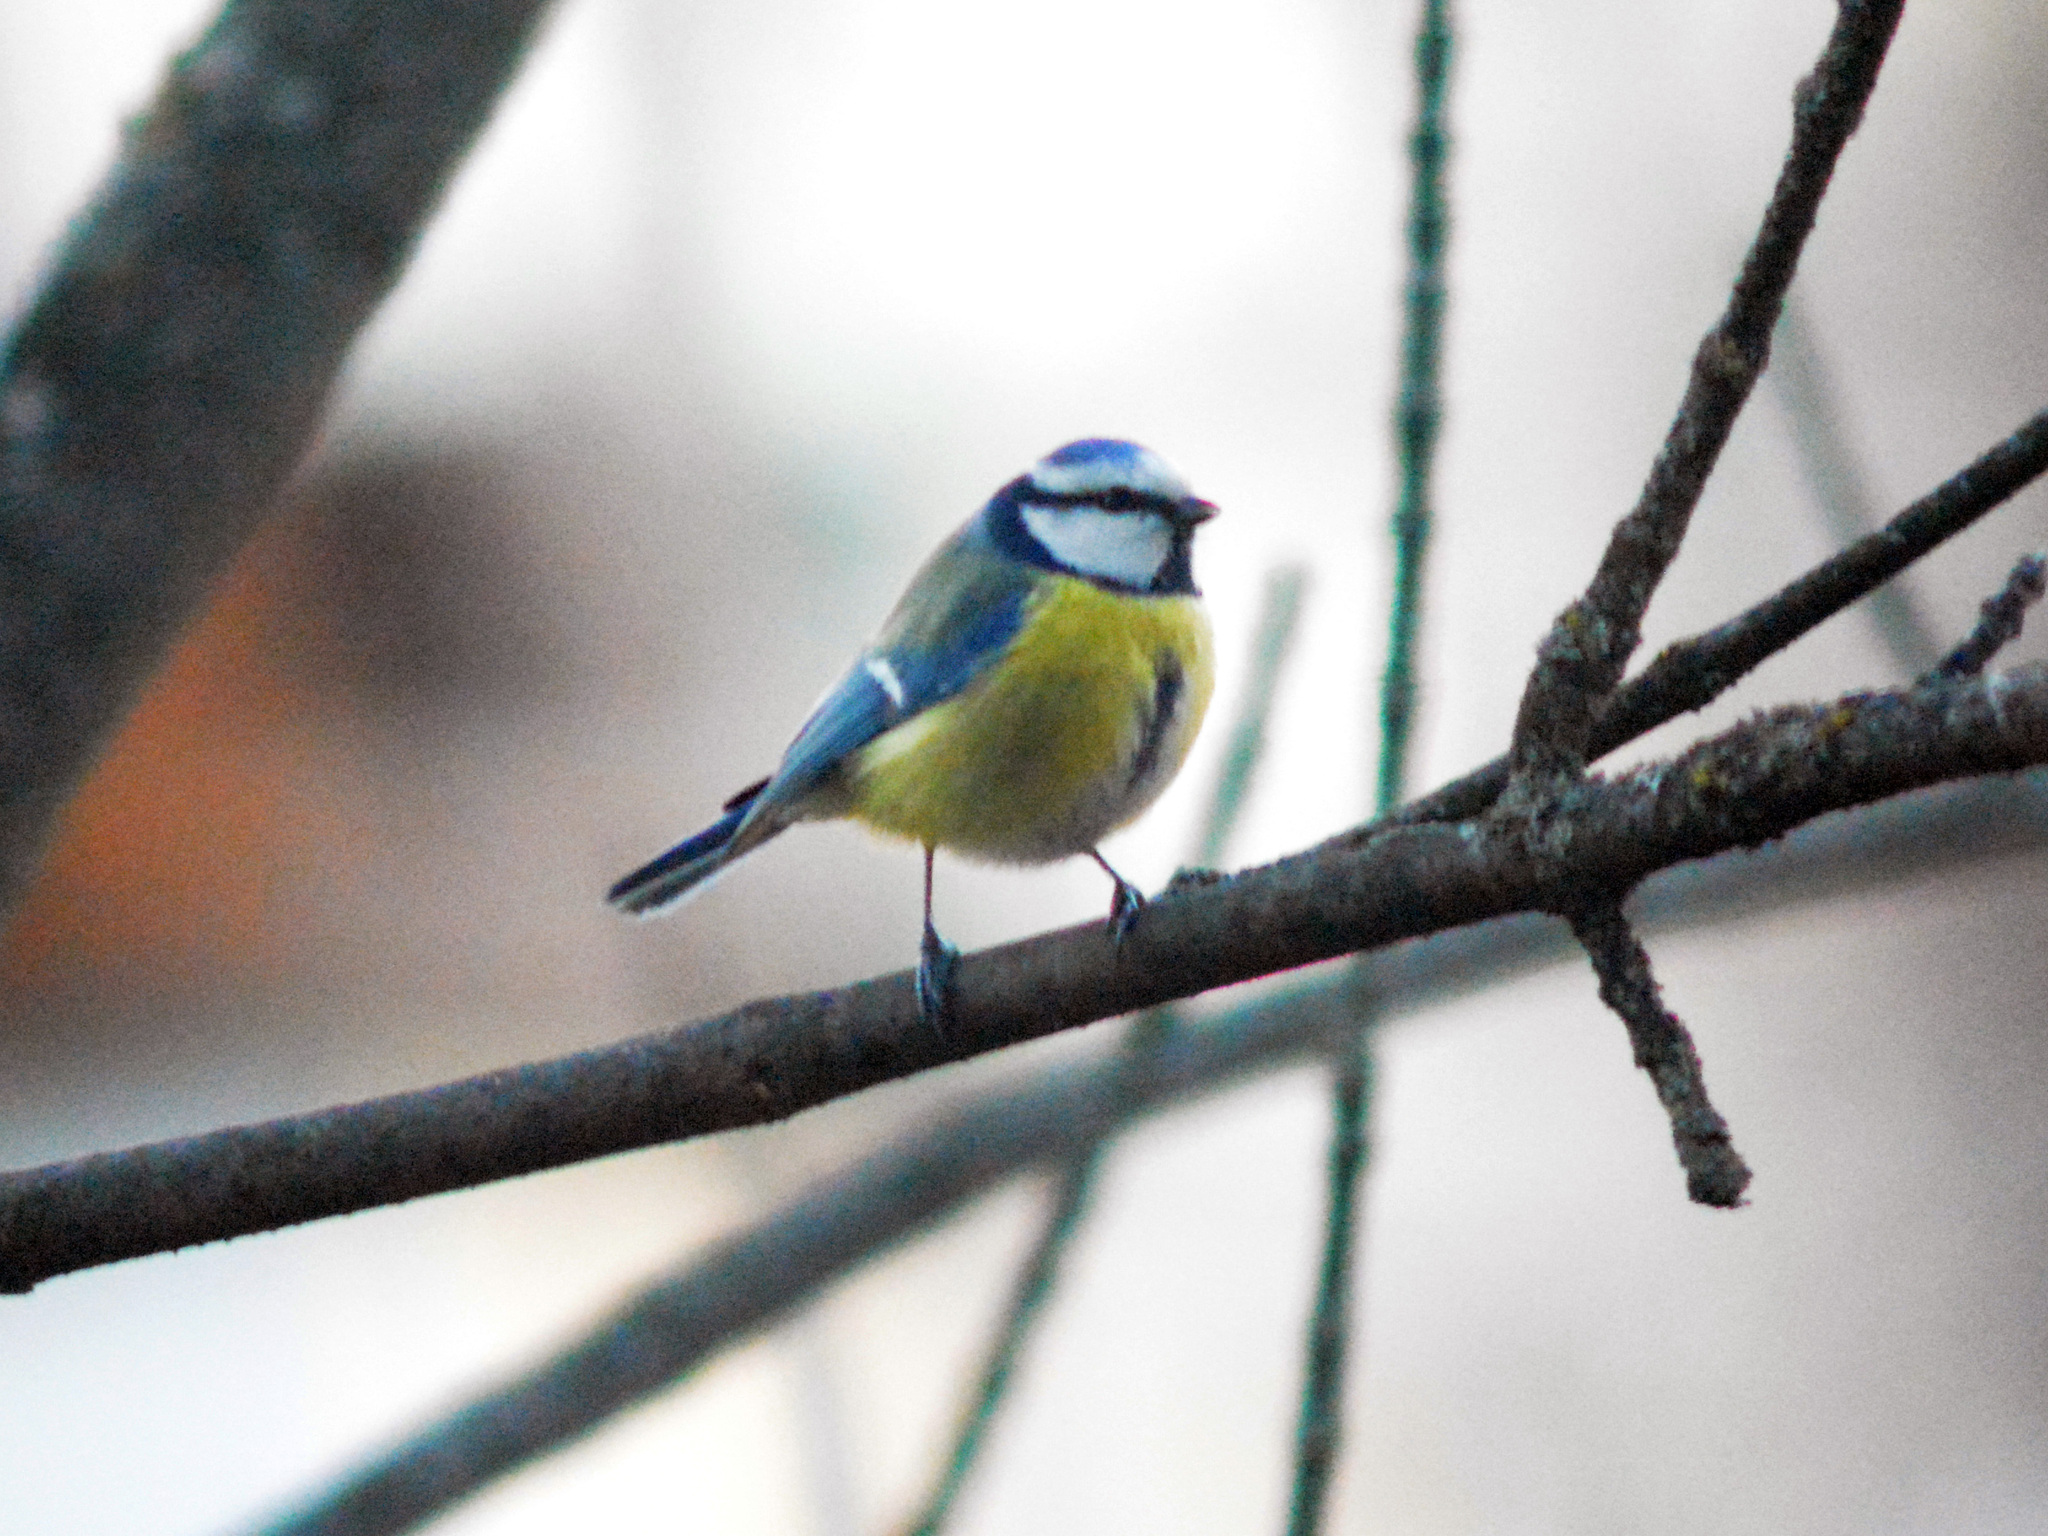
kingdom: Animalia
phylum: Chordata
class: Aves
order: Passeriformes
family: Paridae
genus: Cyanistes
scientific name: Cyanistes caeruleus
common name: Eurasian blue tit
